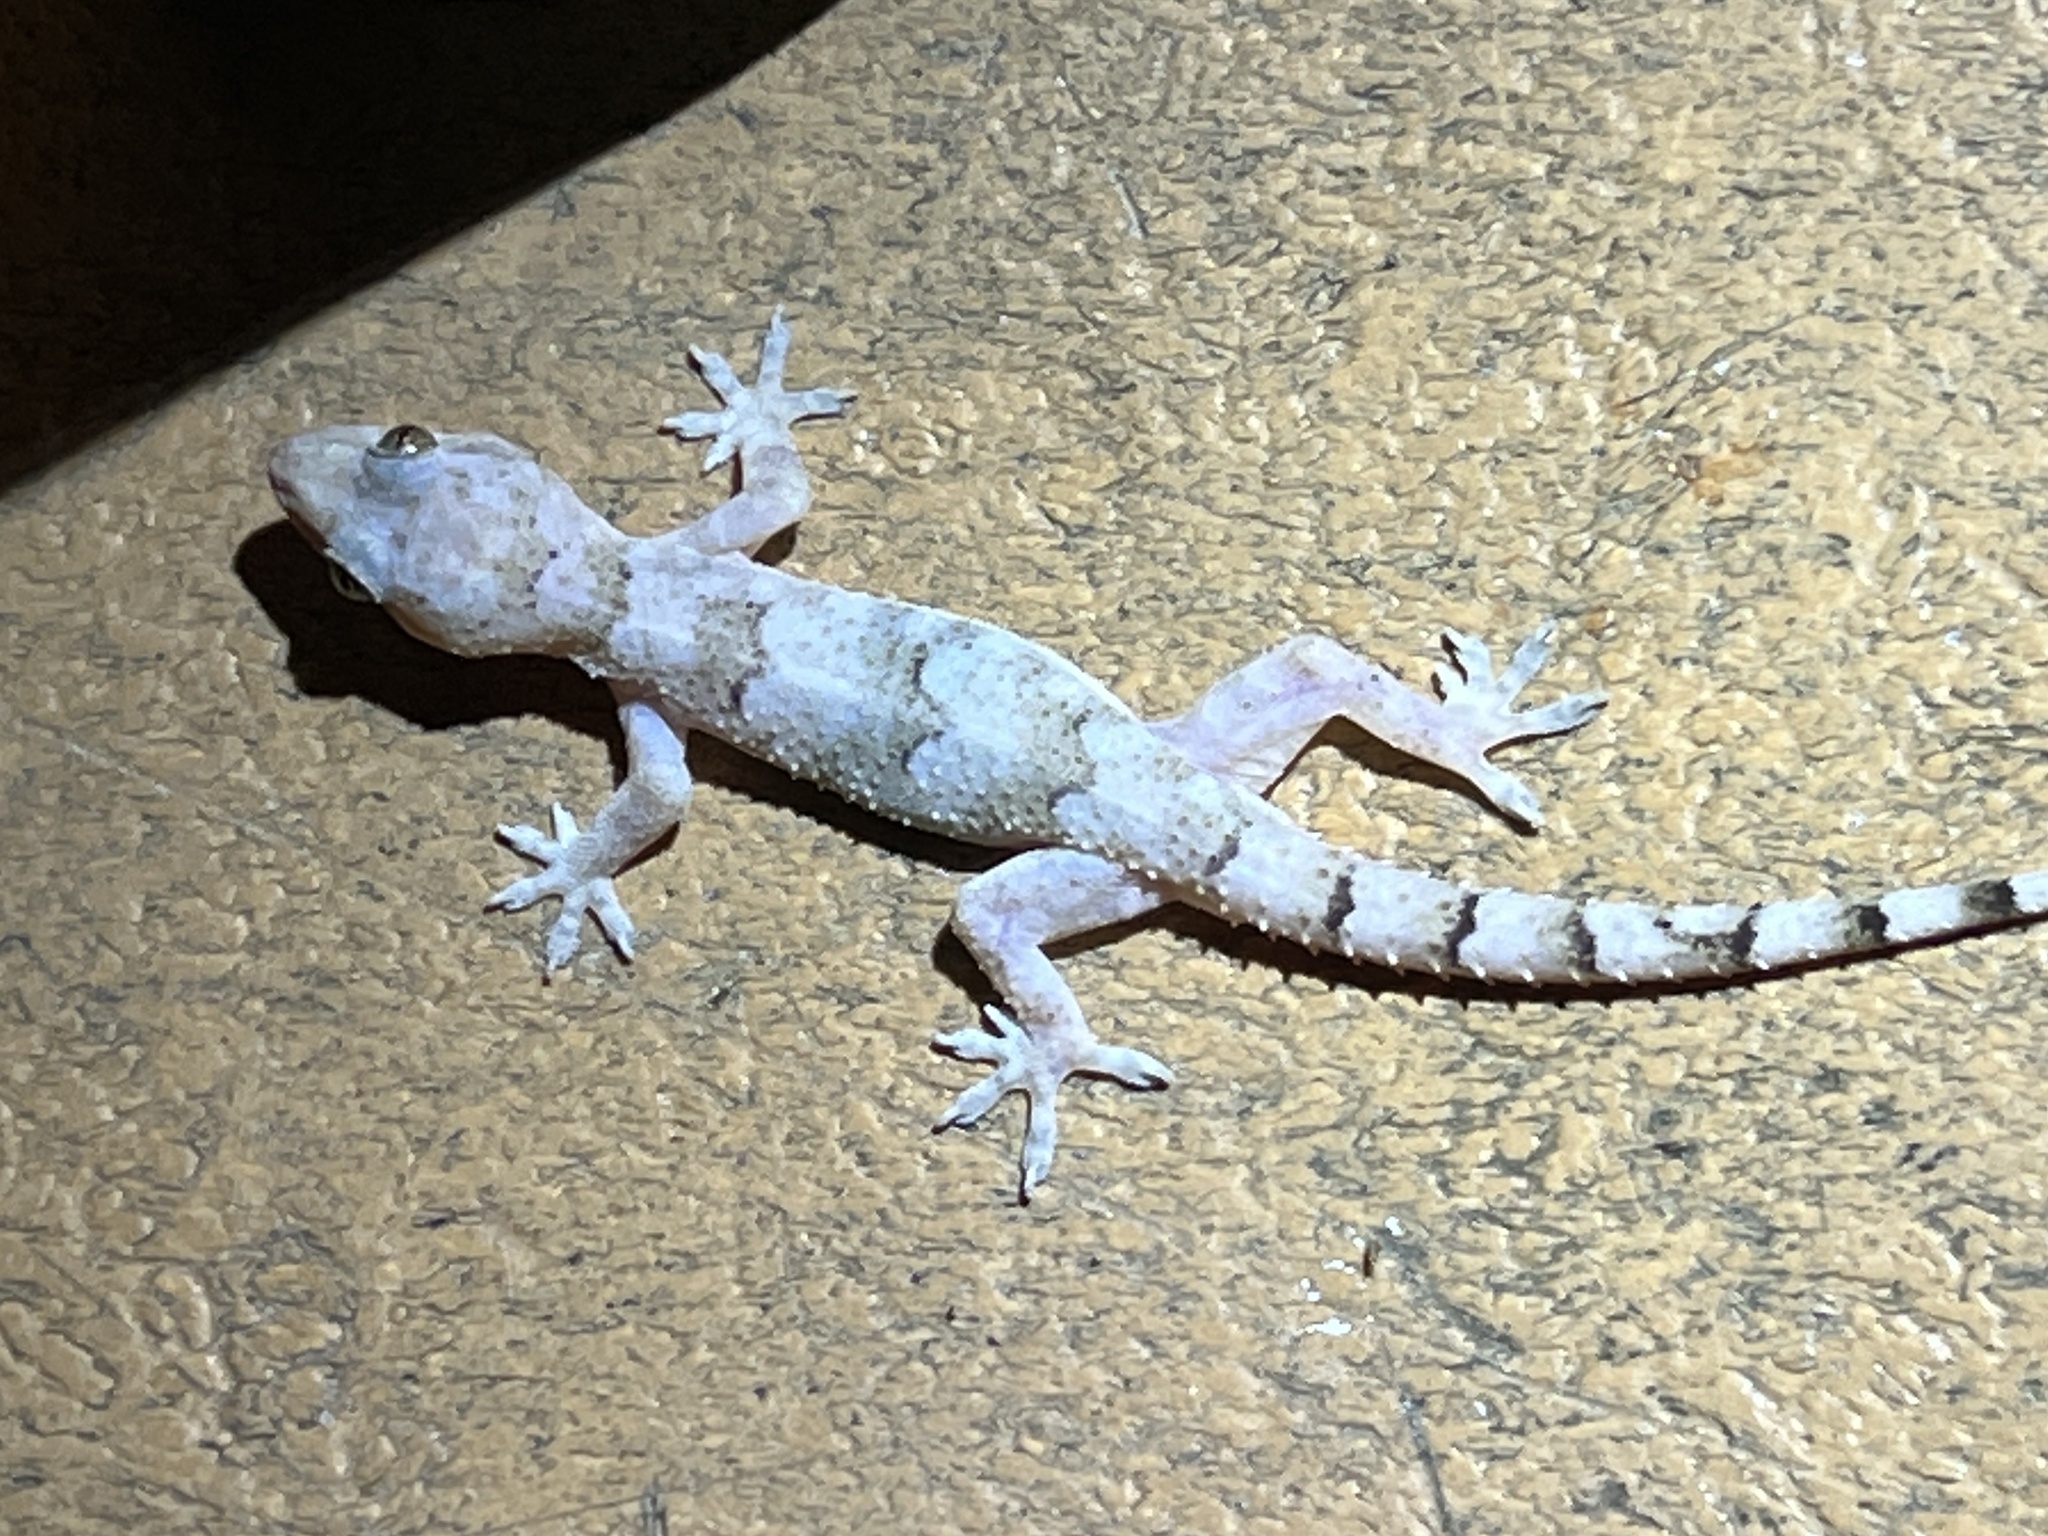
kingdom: Animalia
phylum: Chordata
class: Squamata
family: Gekkonidae
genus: Hemidactylus
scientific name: Hemidactylus mabouia
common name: House gecko
